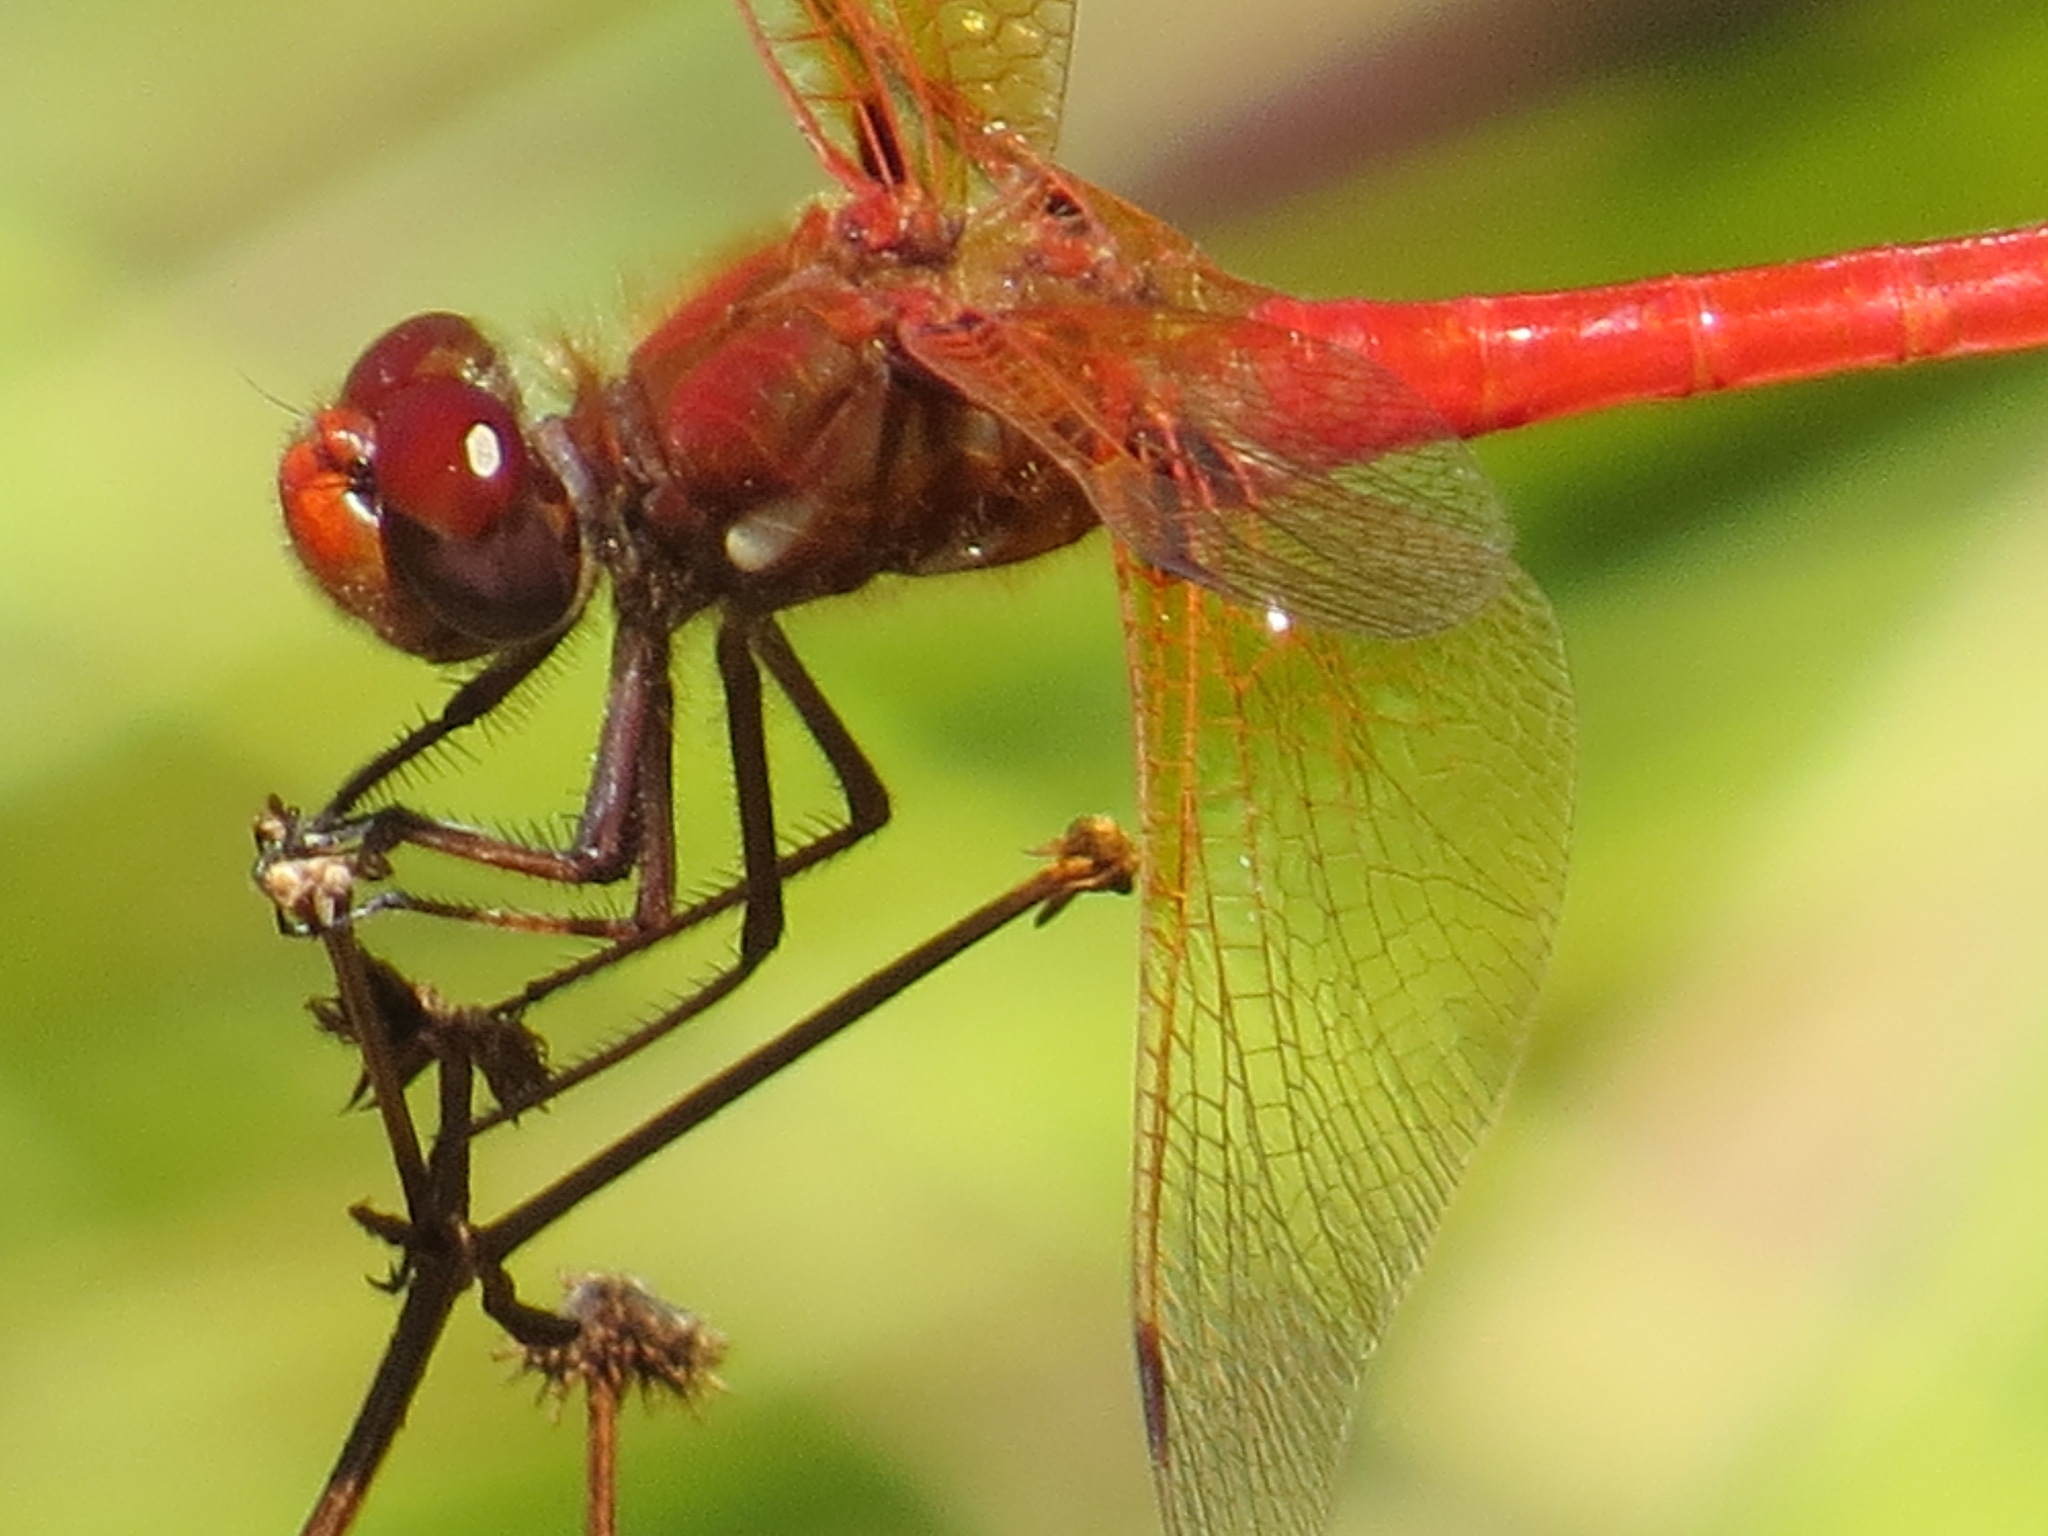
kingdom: Animalia
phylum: Arthropoda
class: Insecta
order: Odonata
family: Libellulidae
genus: Sympetrum
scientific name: Sympetrum illotum
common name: Cardinal meadowhawk
